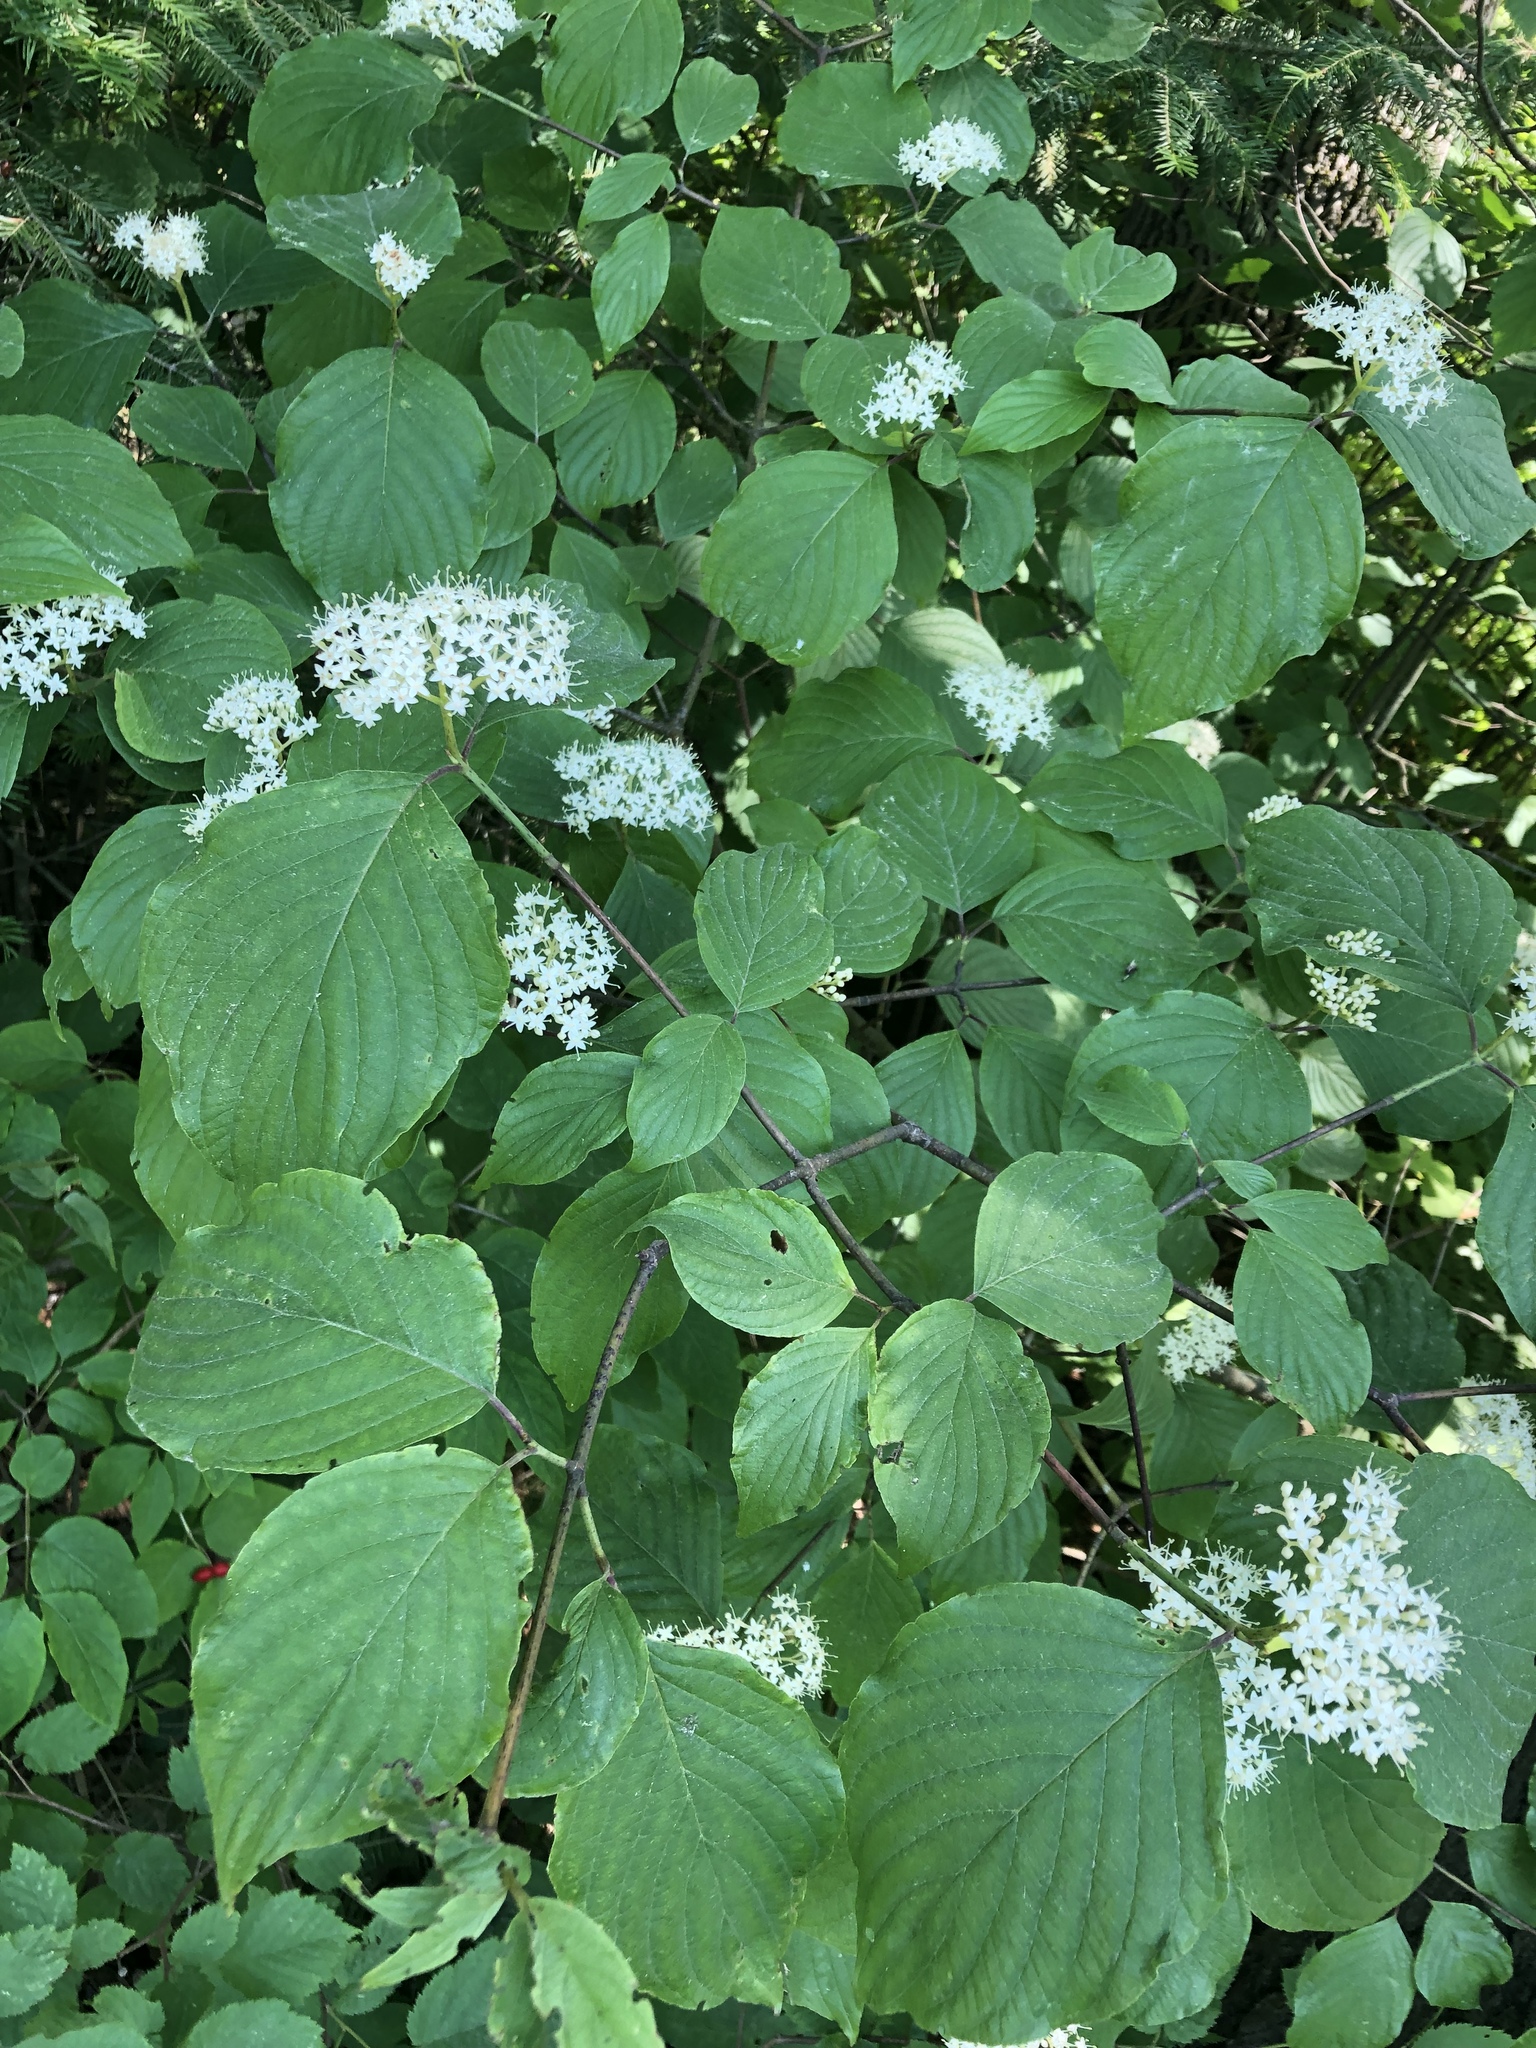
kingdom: Plantae
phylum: Tracheophyta
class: Magnoliopsida
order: Cornales
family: Cornaceae
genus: Cornus
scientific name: Cornus rugosa
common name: Round-leaf dogwood
